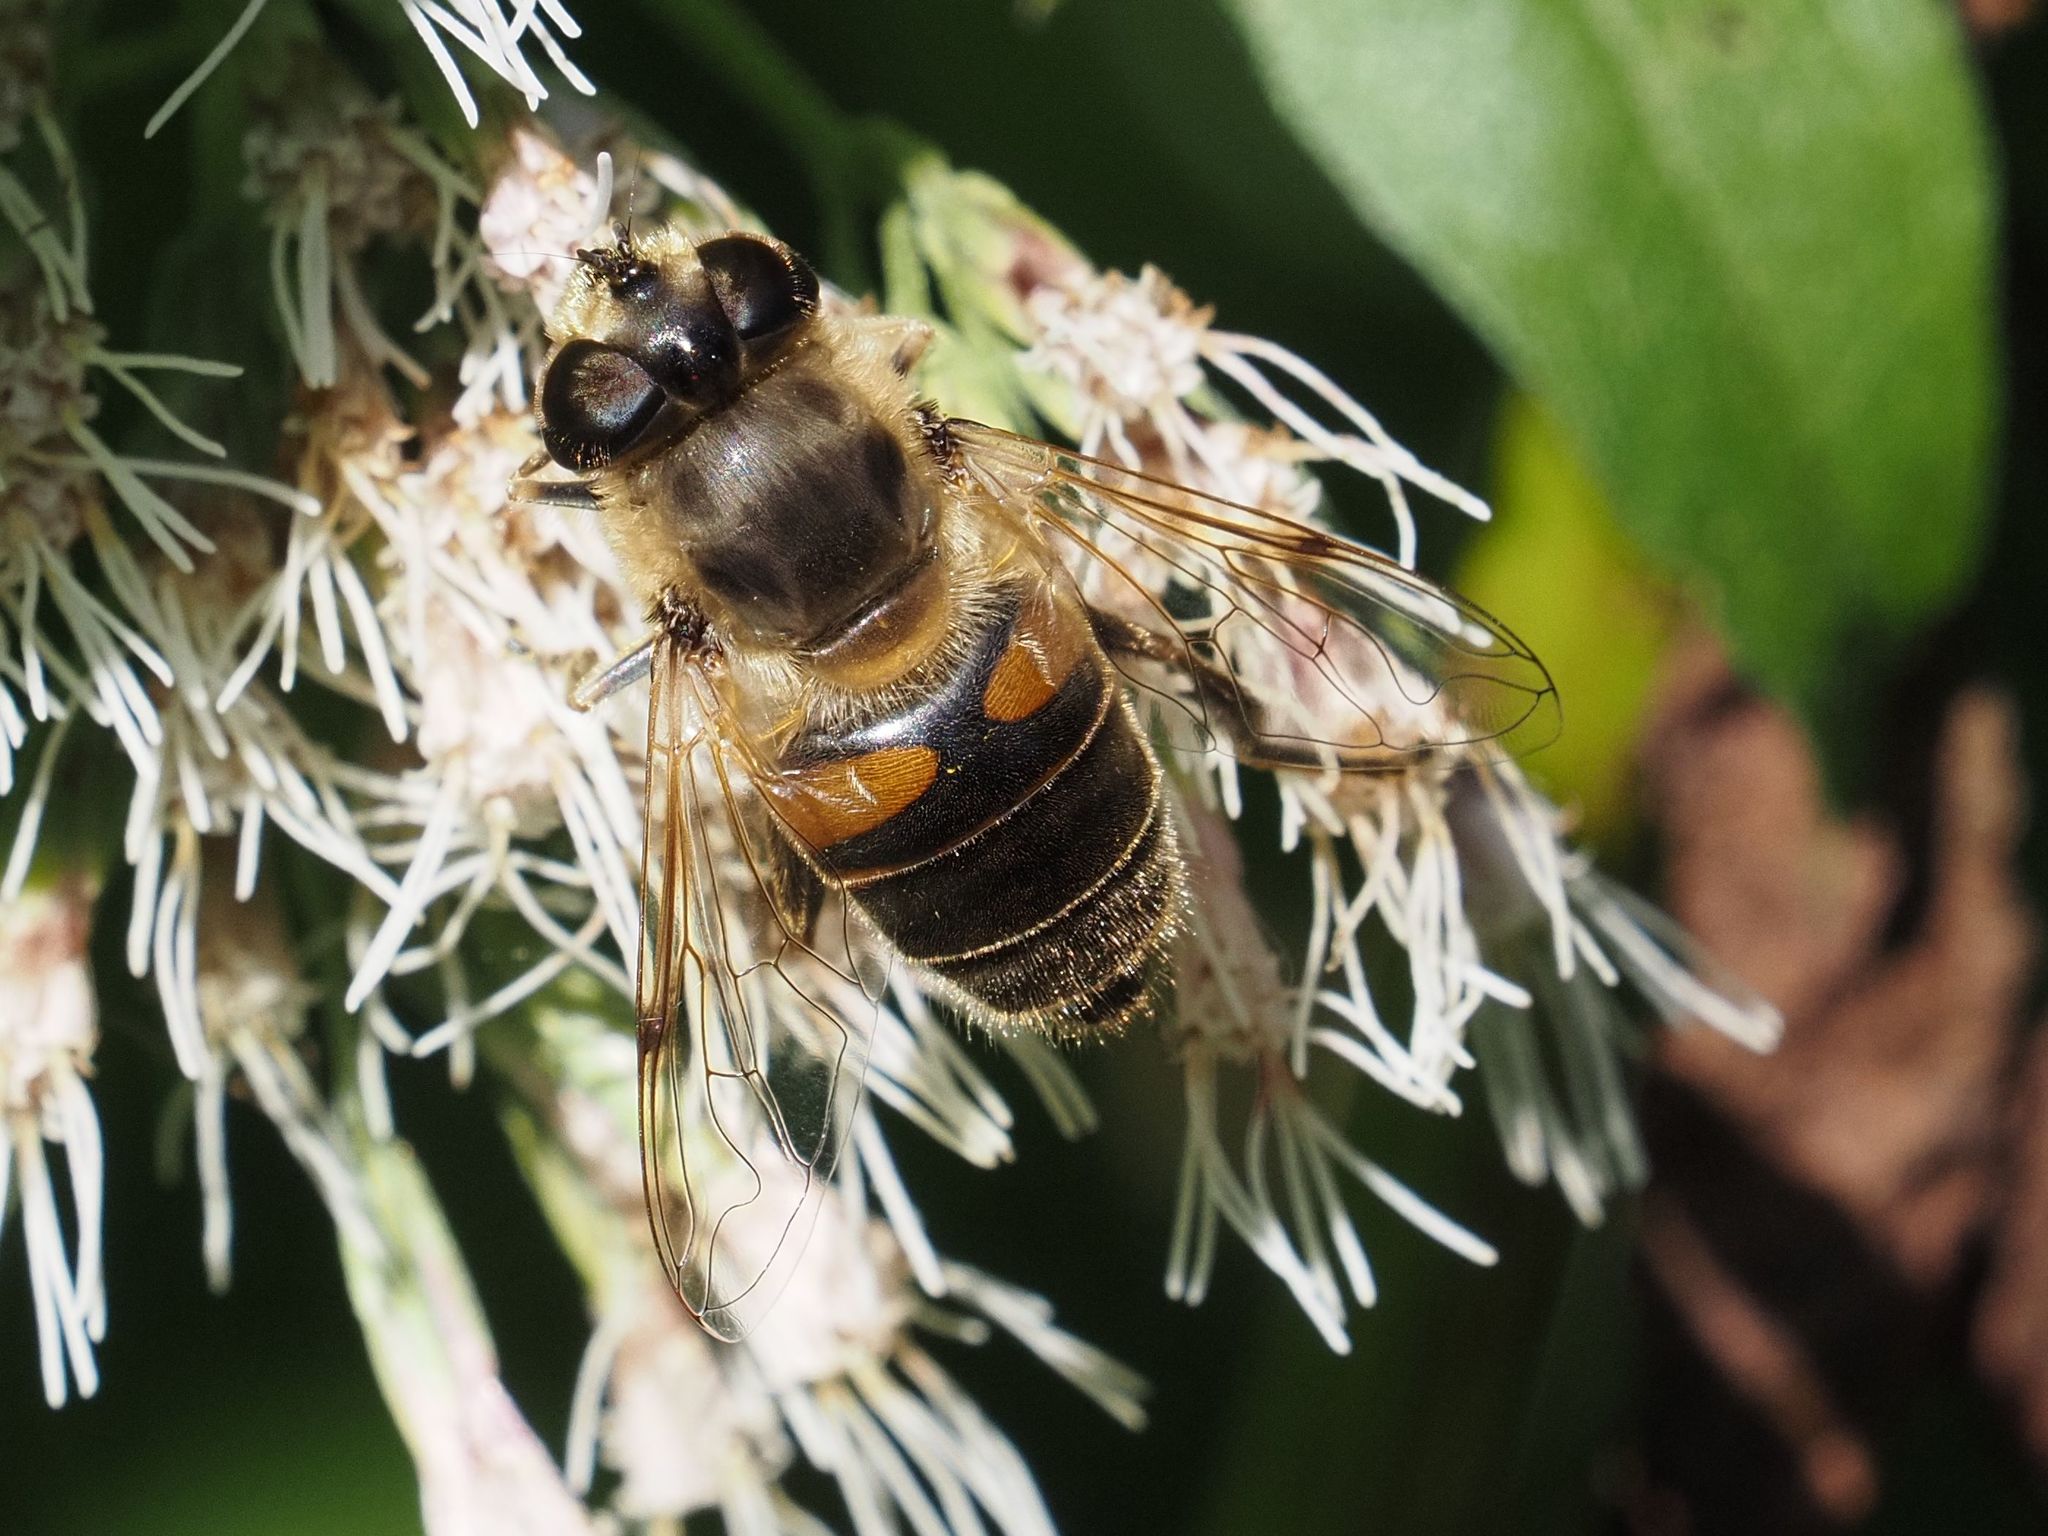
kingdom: Animalia
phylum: Arthropoda
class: Insecta
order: Diptera
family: Syrphidae
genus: Eristalis
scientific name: Eristalis tenax
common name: Drone fly
